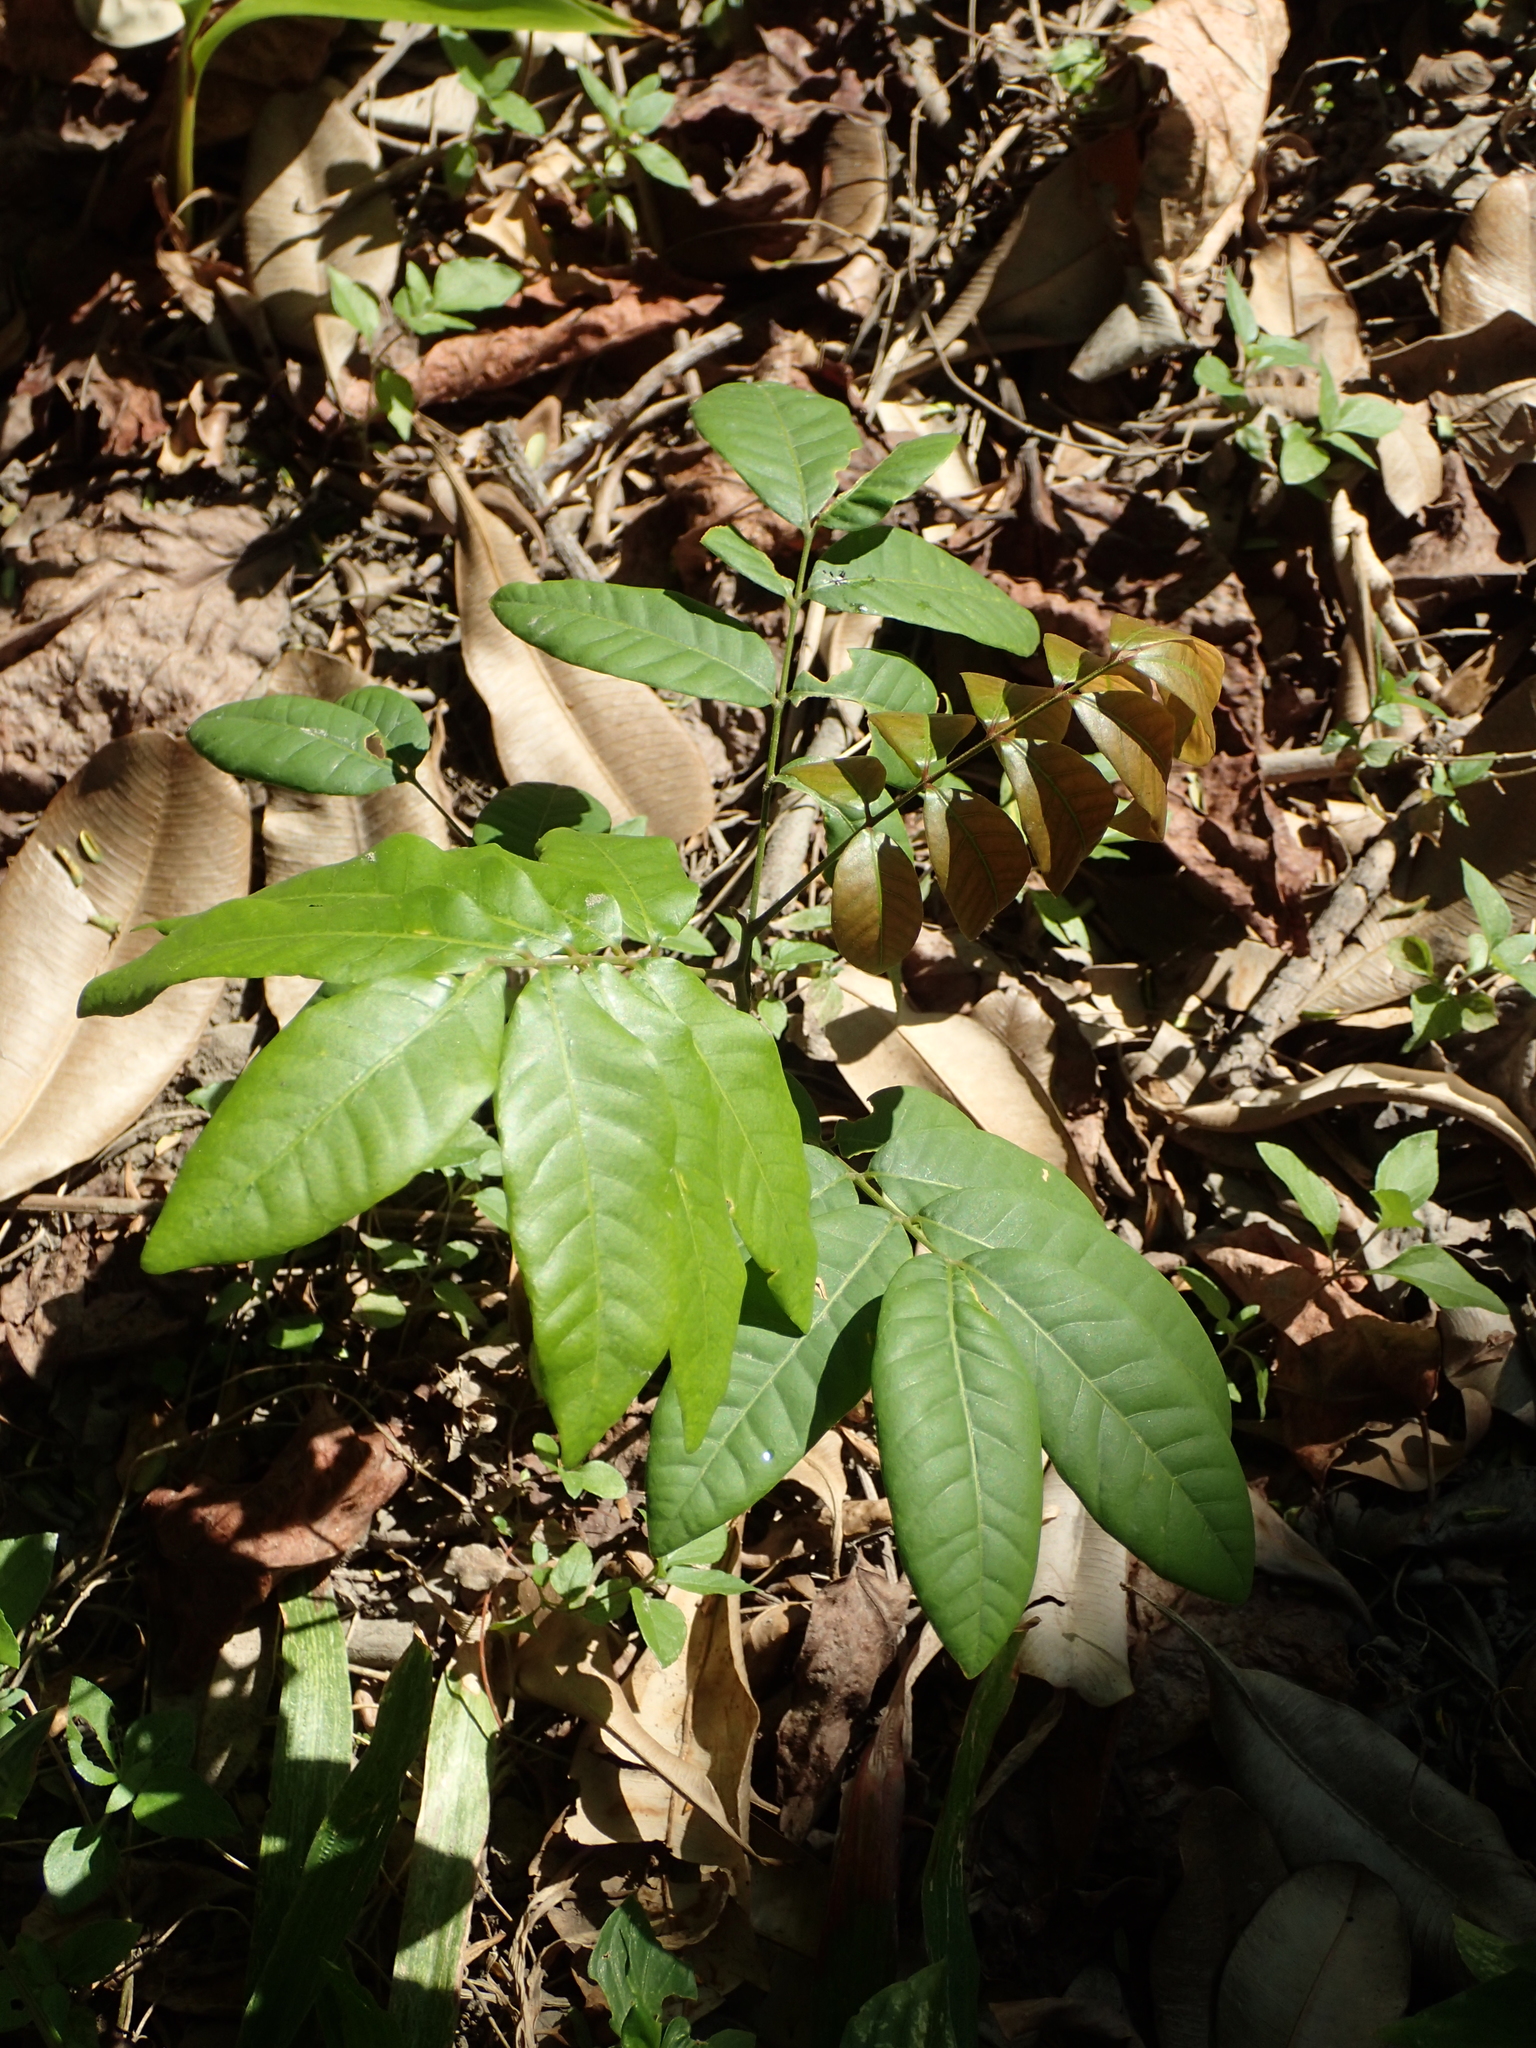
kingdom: Plantae
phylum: Tracheophyta
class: Magnoliopsida
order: Sapindales
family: Sapindaceae
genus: Dimocarpus
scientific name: Dimocarpus longan
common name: Longan
